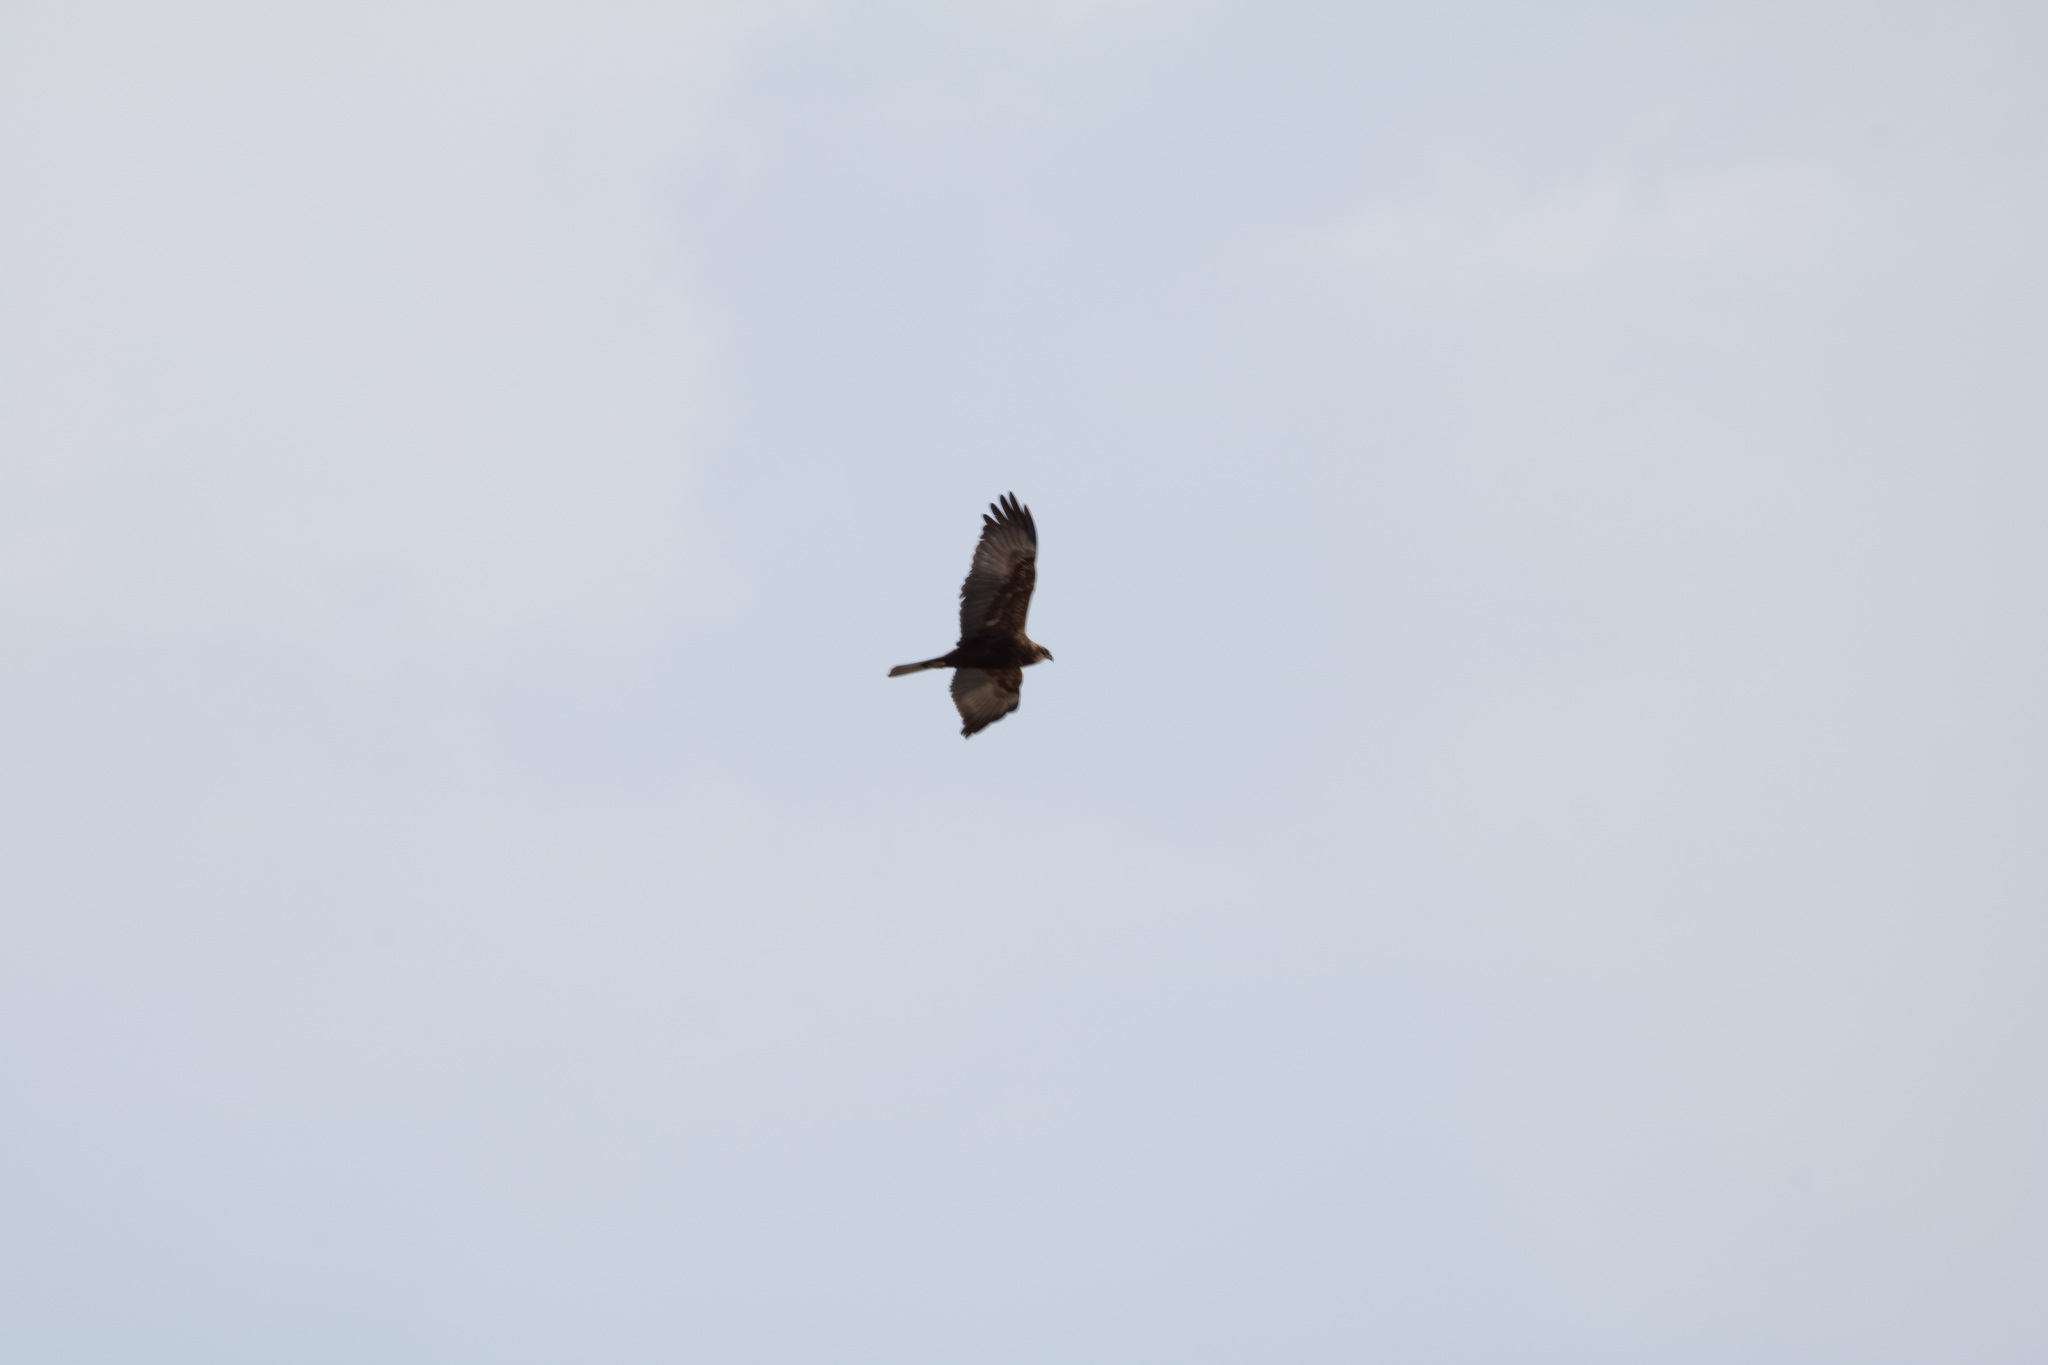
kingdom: Animalia
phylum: Chordata
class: Aves
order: Accipitriformes
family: Accipitridae
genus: Circus
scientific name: Circus aeruginosus
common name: Western marsh harrier
